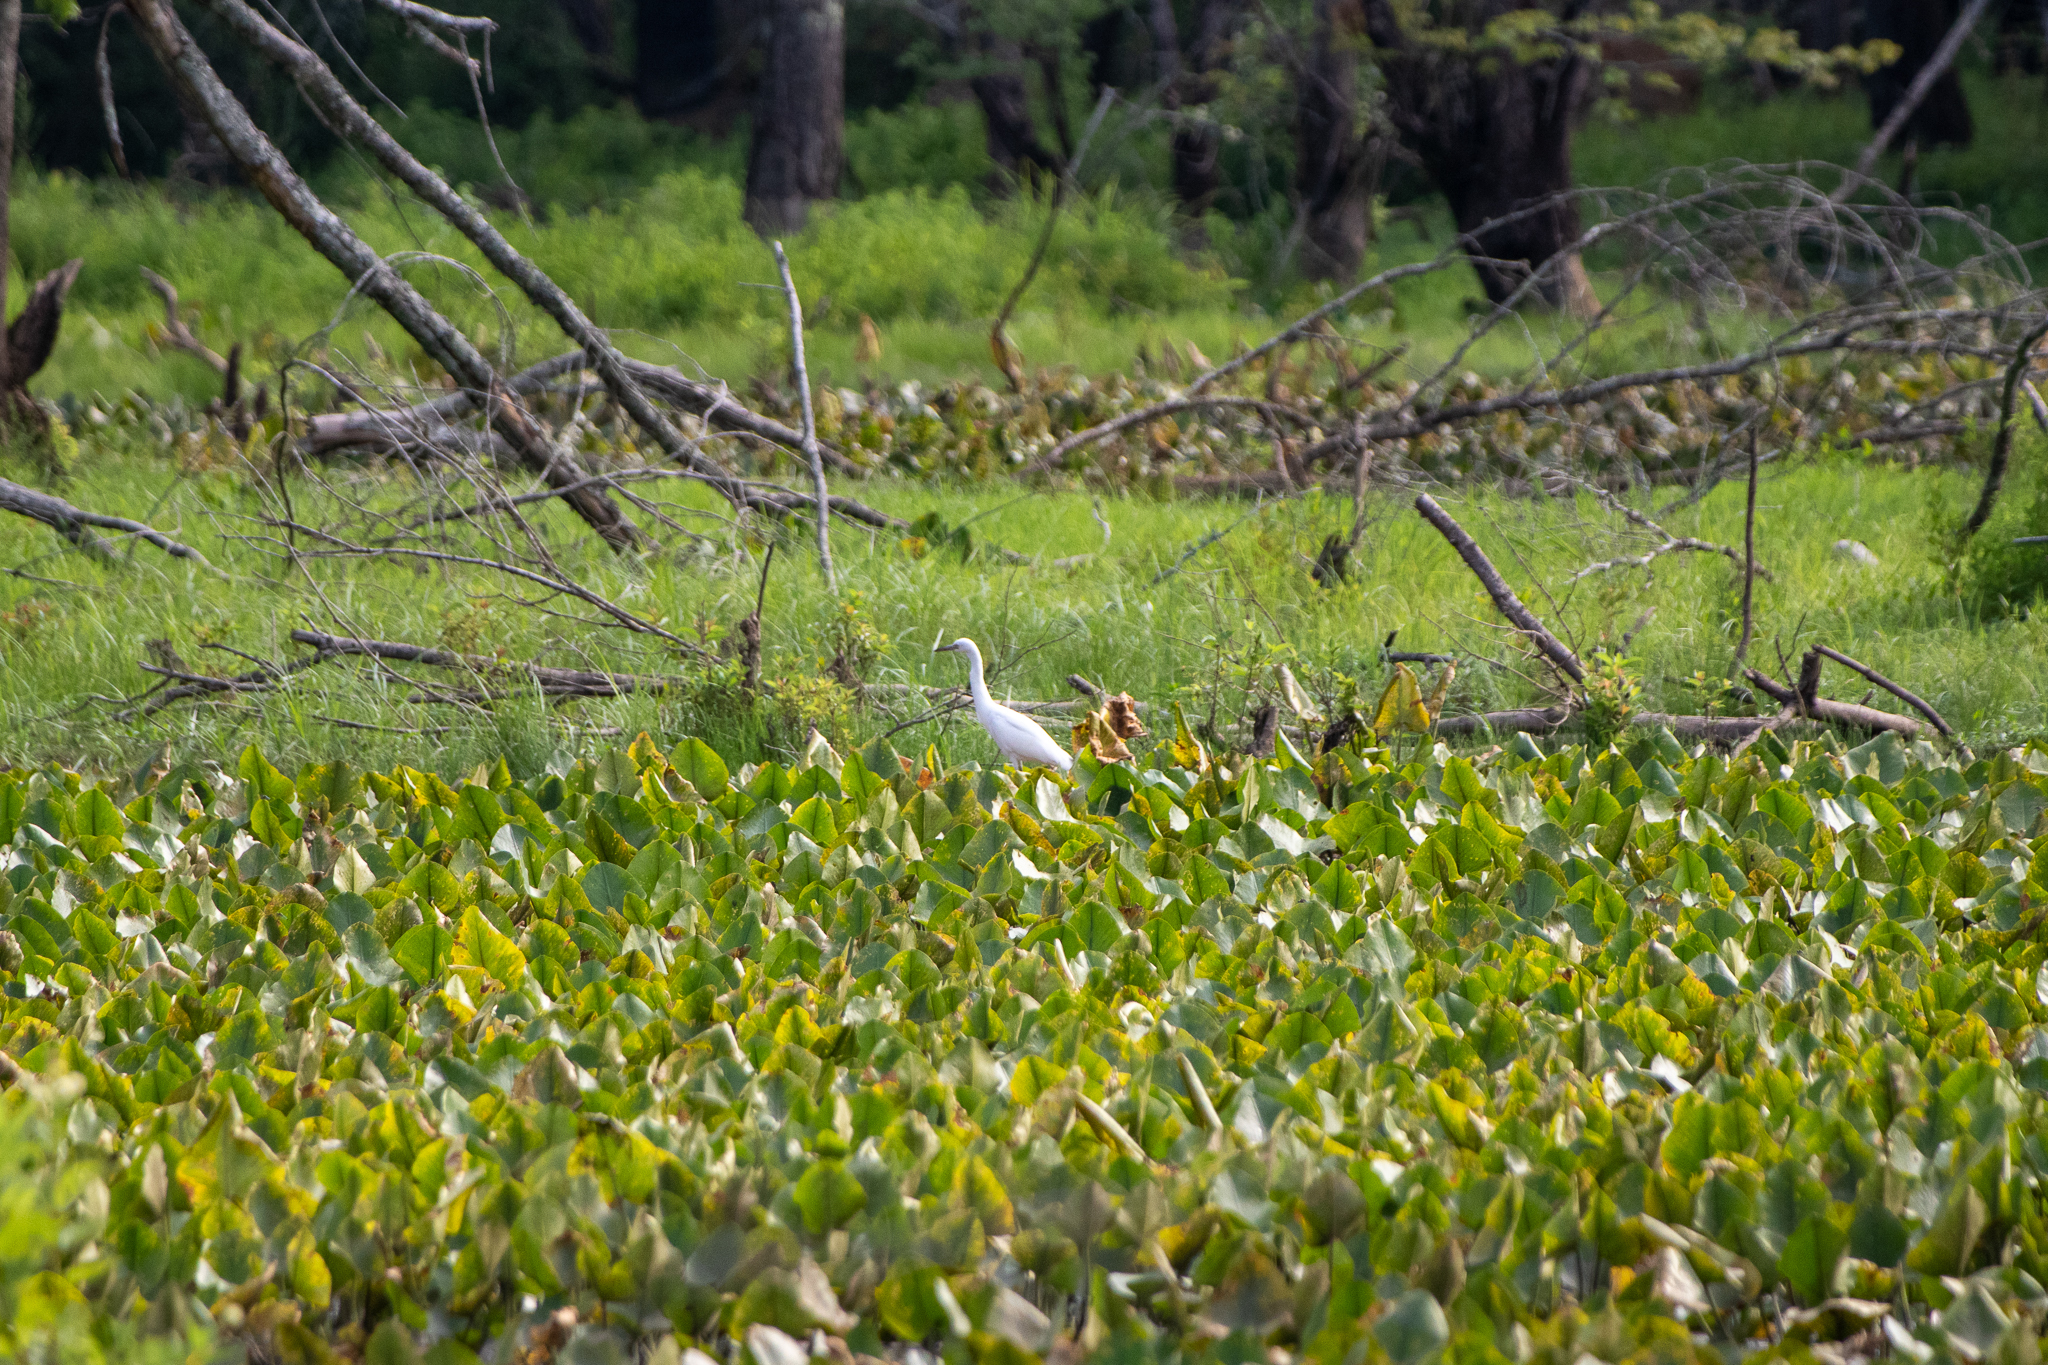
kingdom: Animalia
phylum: Chordata
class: Aves
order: Pelecaniformes
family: Ardeidae
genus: Egretta
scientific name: Egretta caerulea
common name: Little blue heron
